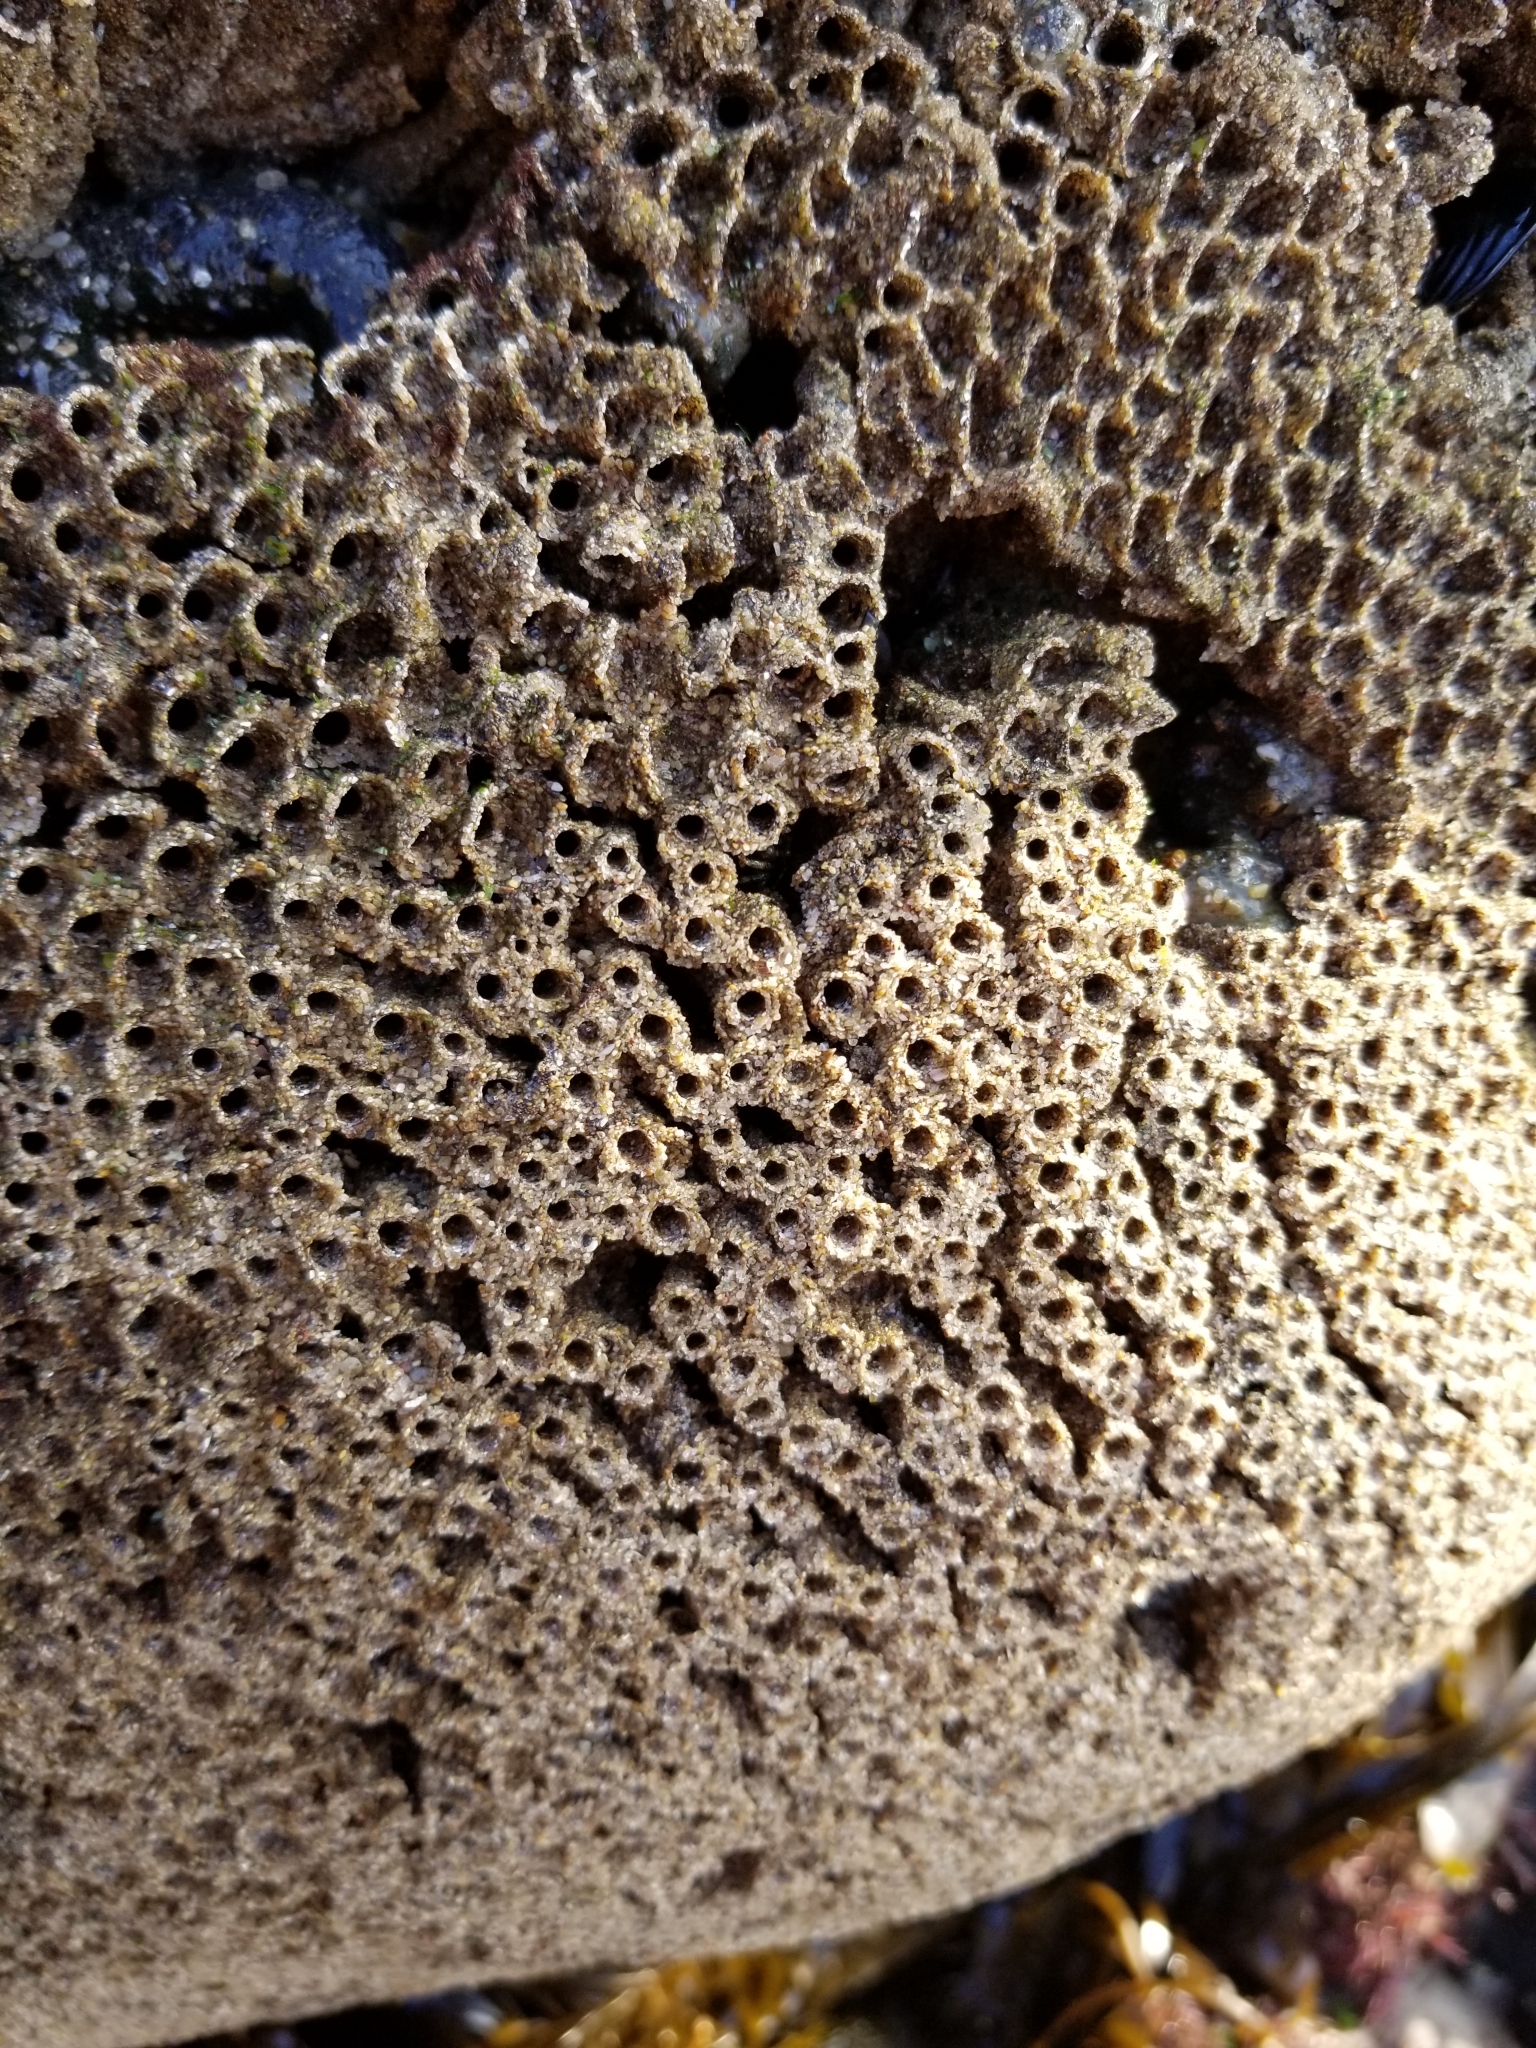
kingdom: Animalia
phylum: Annelida
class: Polychaeta
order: Sabellida
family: Sabellariidae
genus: Phragmatopoma
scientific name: Phragmatopoma californica
